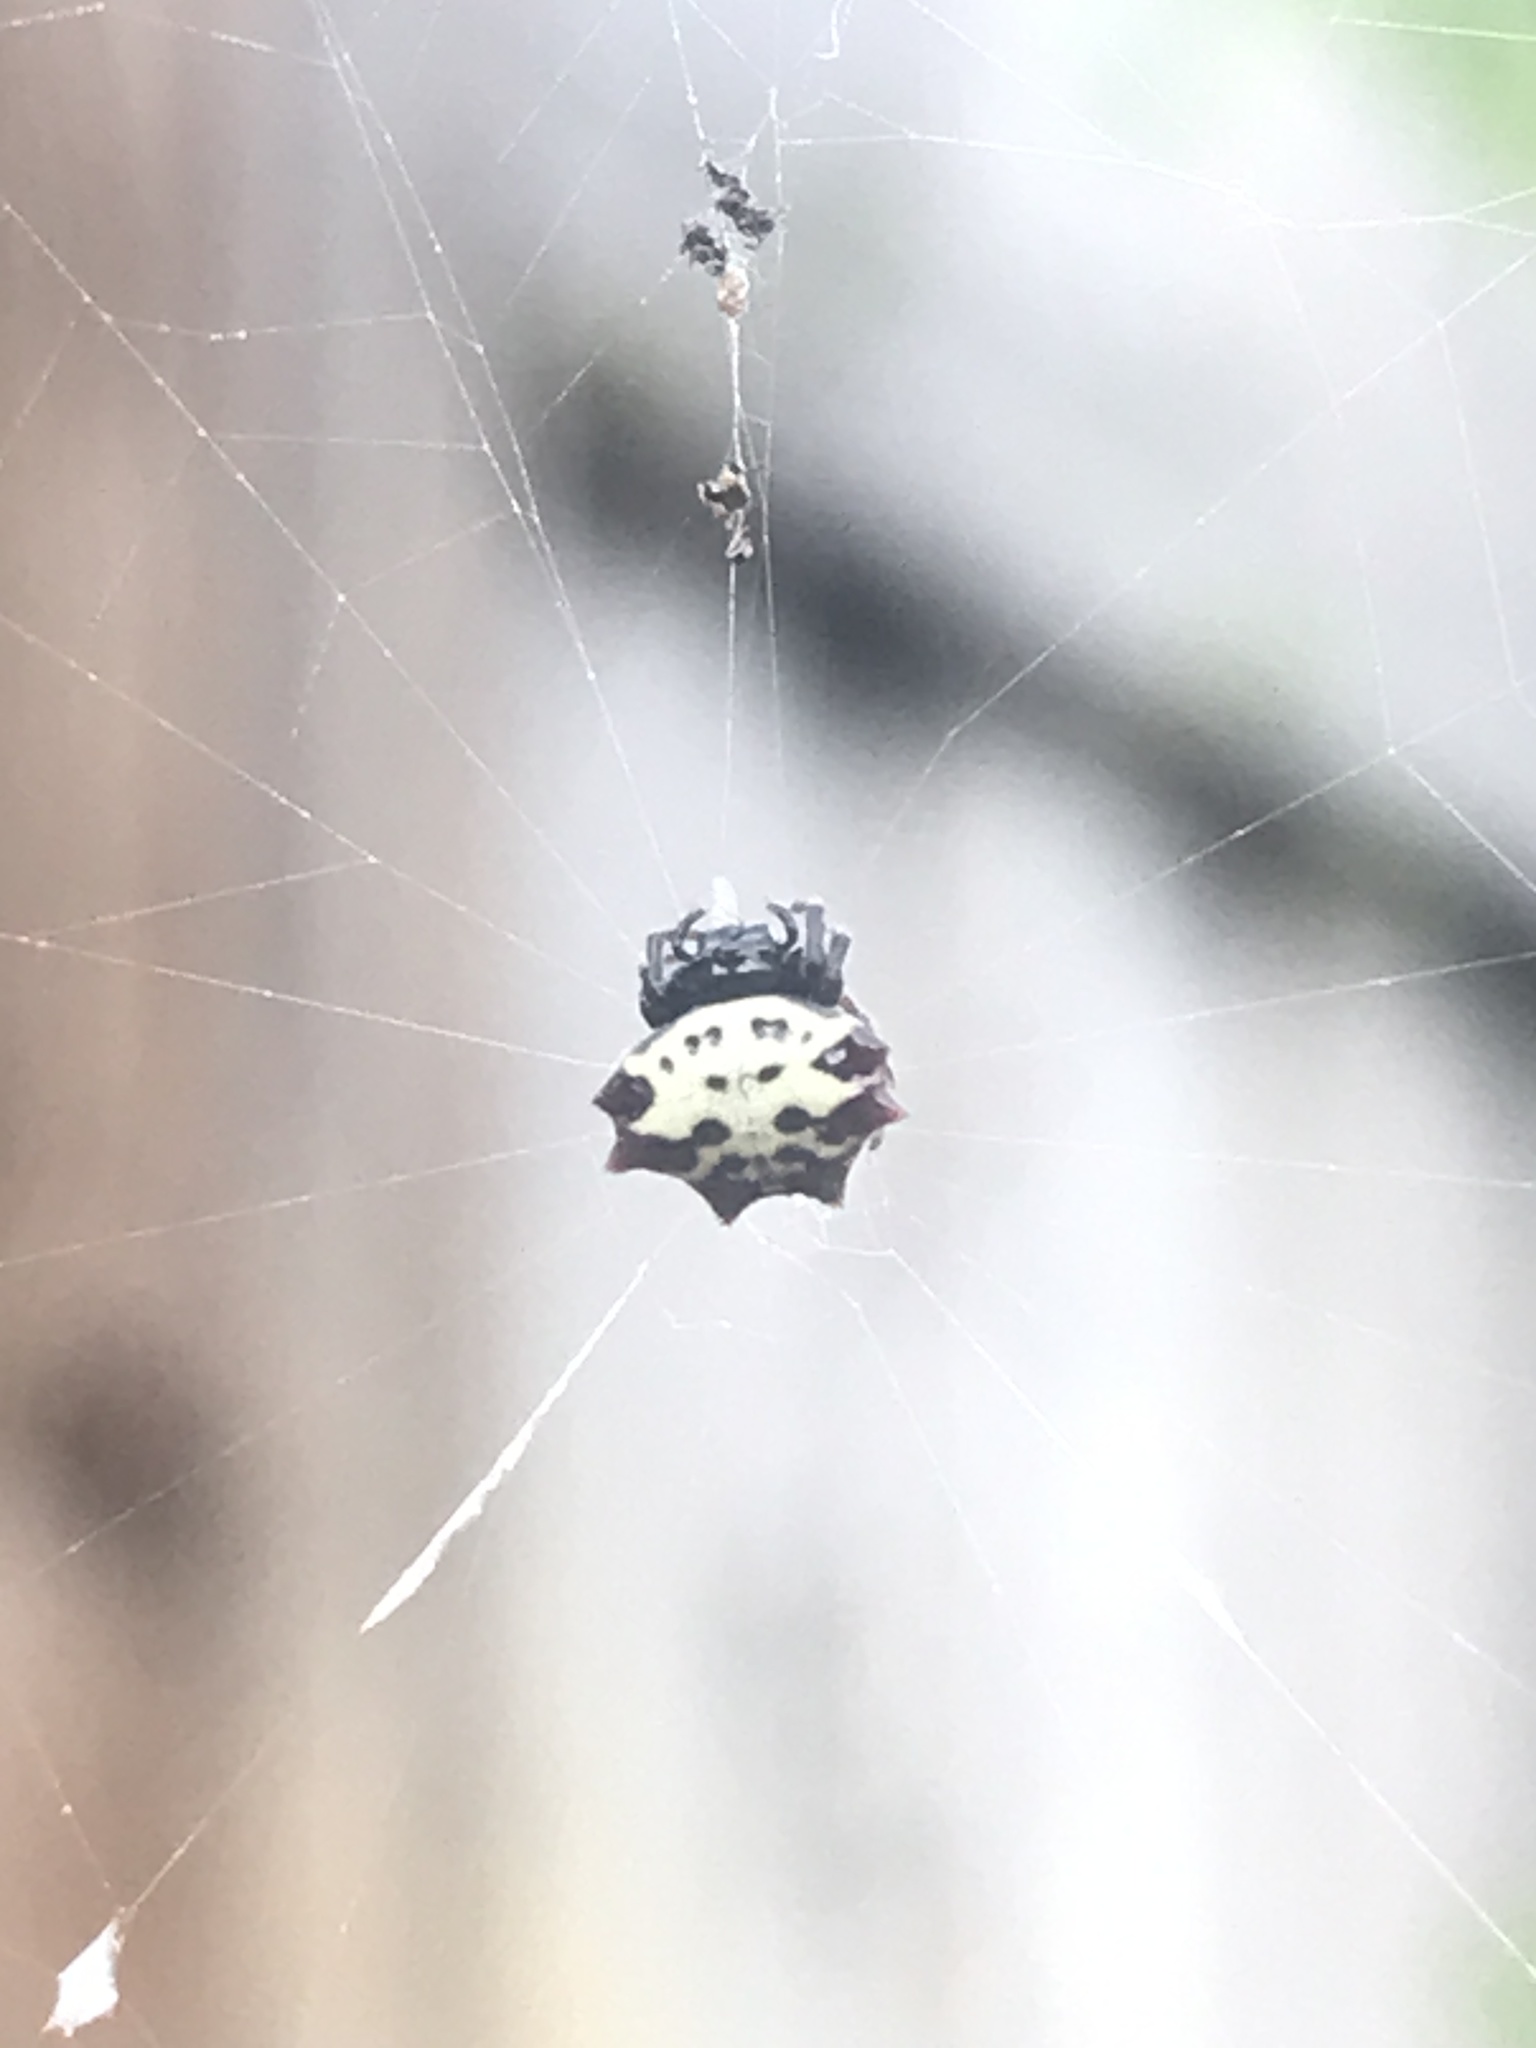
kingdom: Animalia
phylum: Arthropoda
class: Arachnida
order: Araneae
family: Araneidae
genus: Gasteracantha
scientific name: Gasteracantha cancriformis
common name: Orb weavers
